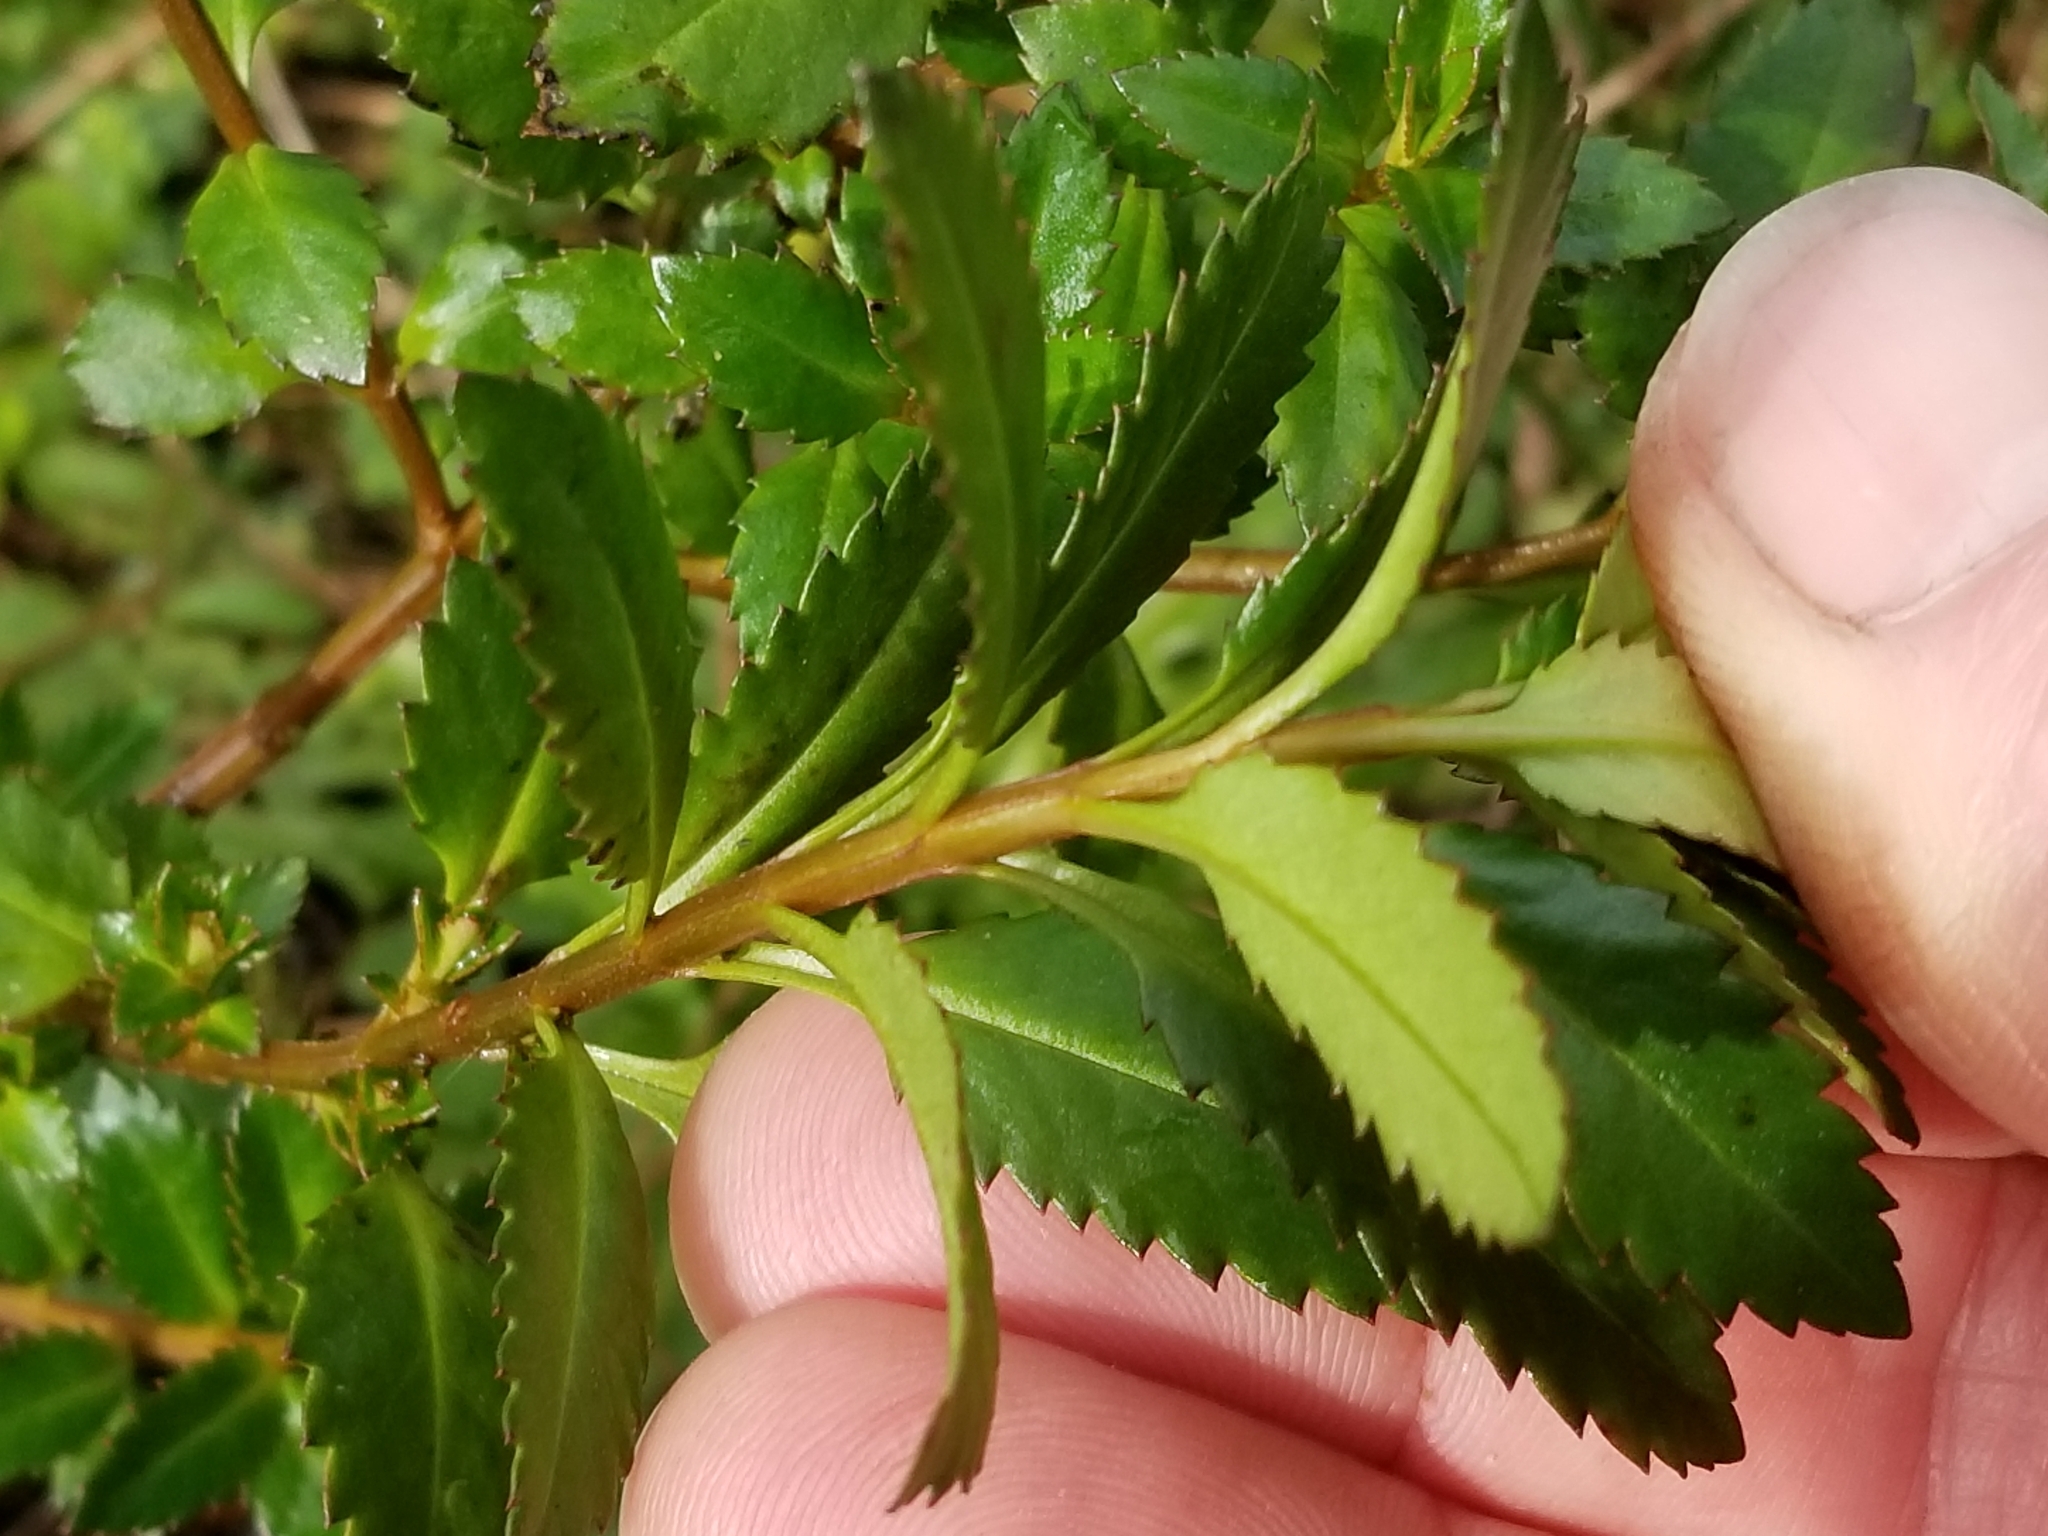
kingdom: Plantae
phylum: Tracheophyta
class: Magnoliopsida
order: Saxifragales
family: Haloragaceae
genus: Haloragis
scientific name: Haloragis erecta
